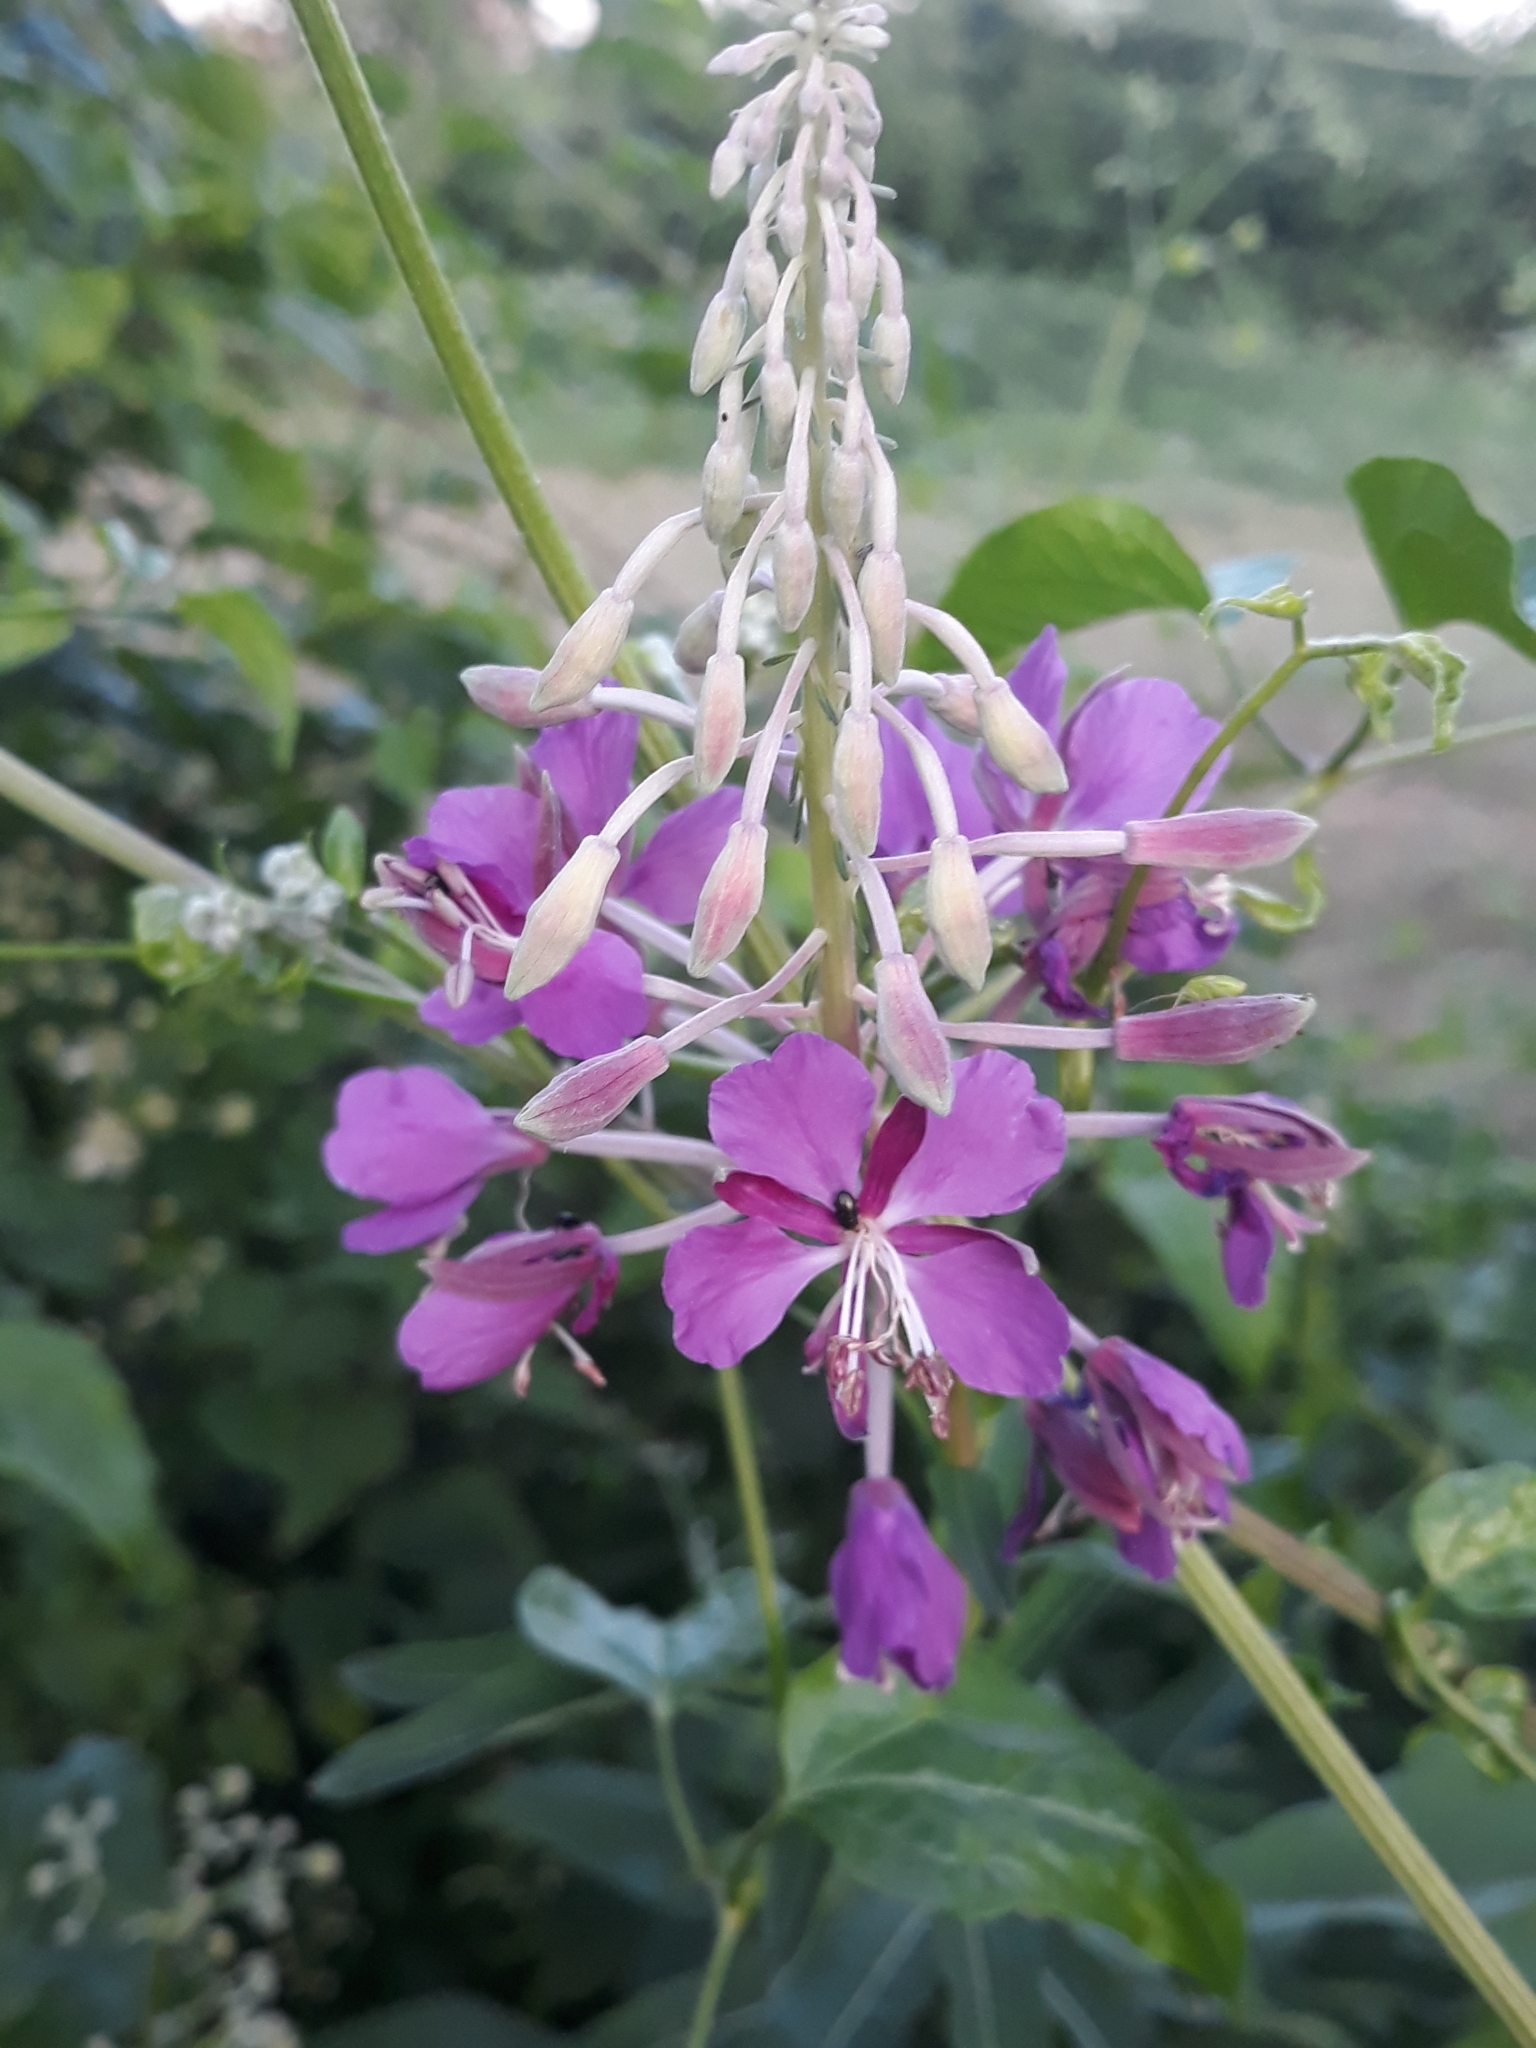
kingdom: Plantae
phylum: Tracheophyta
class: Magnoliopsida
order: Myrtales
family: Onagraceae
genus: Chamaenerion
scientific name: Chamaenerion angustifolium
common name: Fireweed
